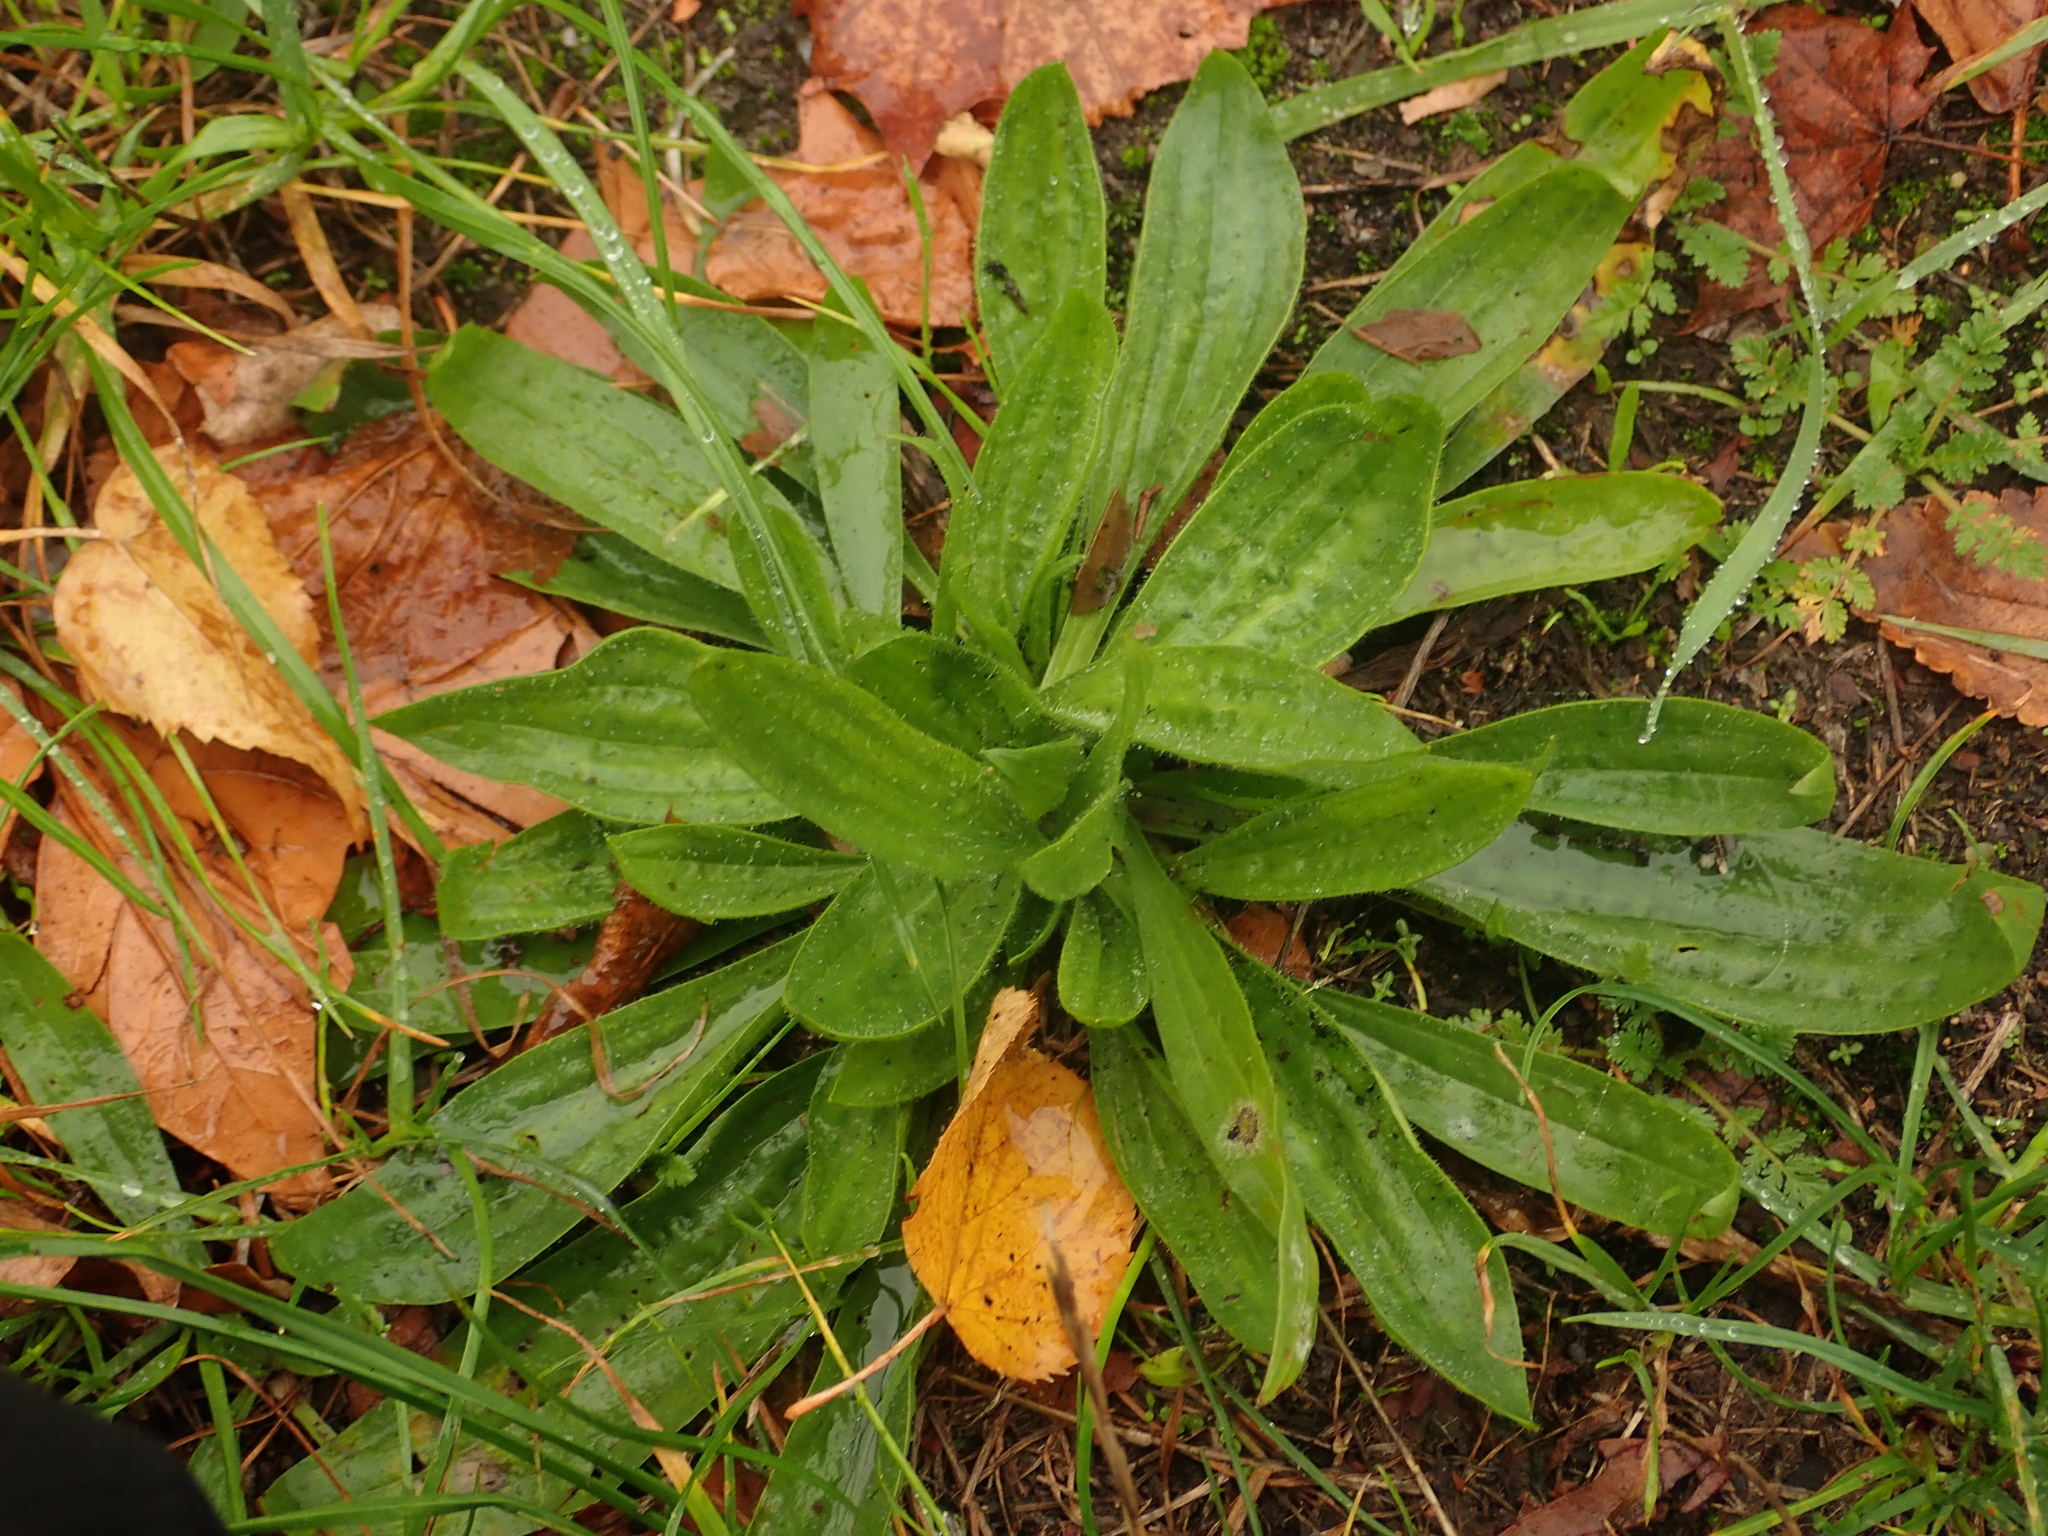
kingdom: Plantae
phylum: Tracheophyta
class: Magnoliopsida
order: Lamiales
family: Plantaginaceae
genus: Plantago
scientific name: Plantago lanceolata
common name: Ribwort plantain
